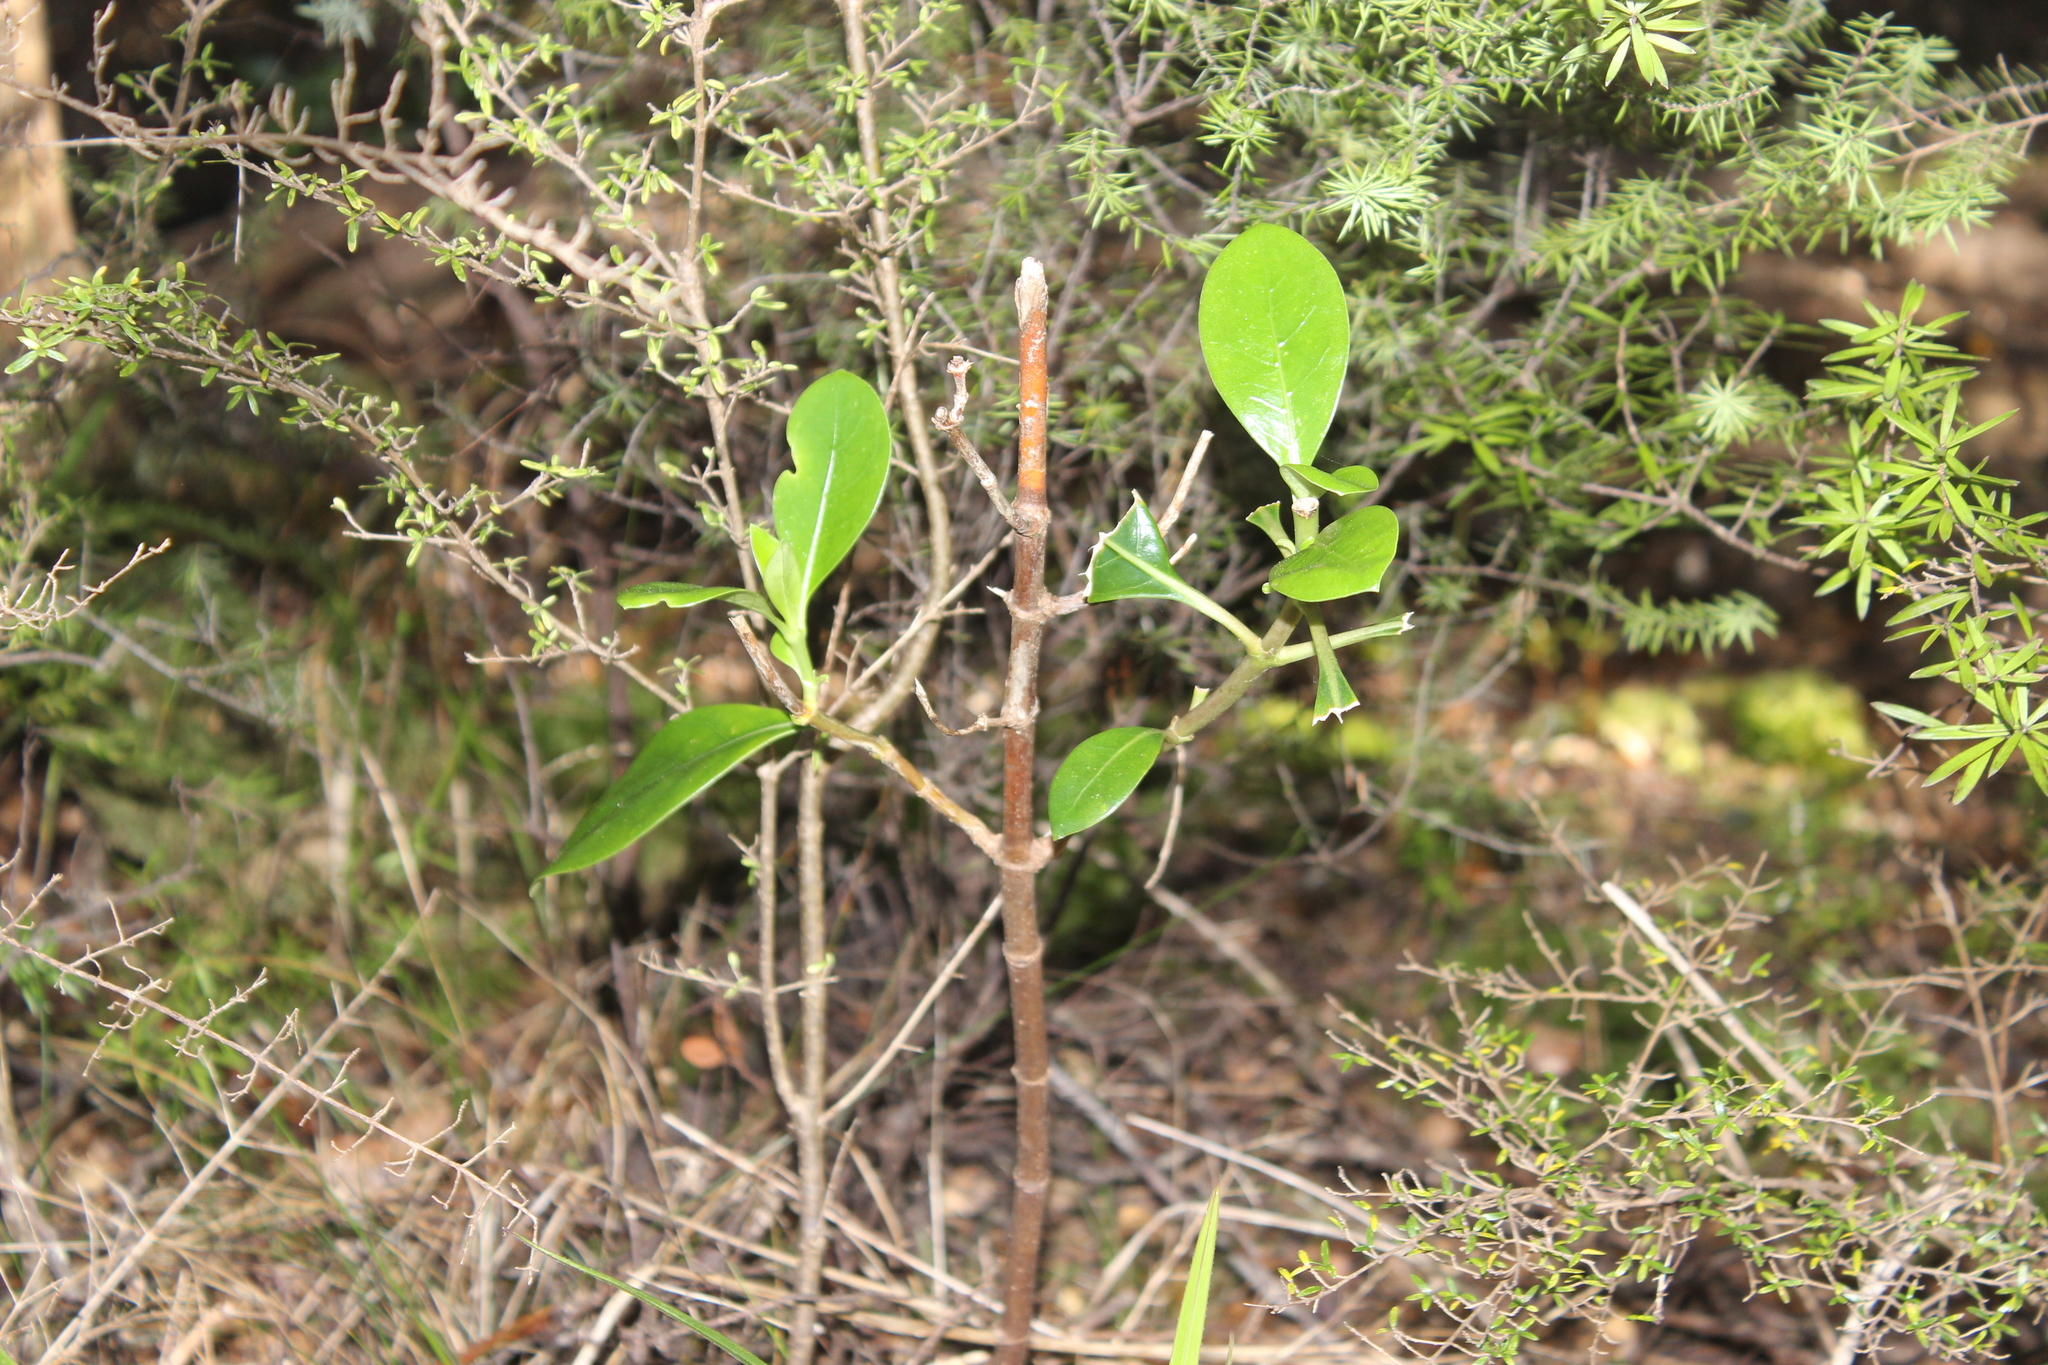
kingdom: Plantae
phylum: Tracheophyta
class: Magnoliopsida
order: Gentianales
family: Rubiaceae
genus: Coprosma
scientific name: Coprosma lucida
